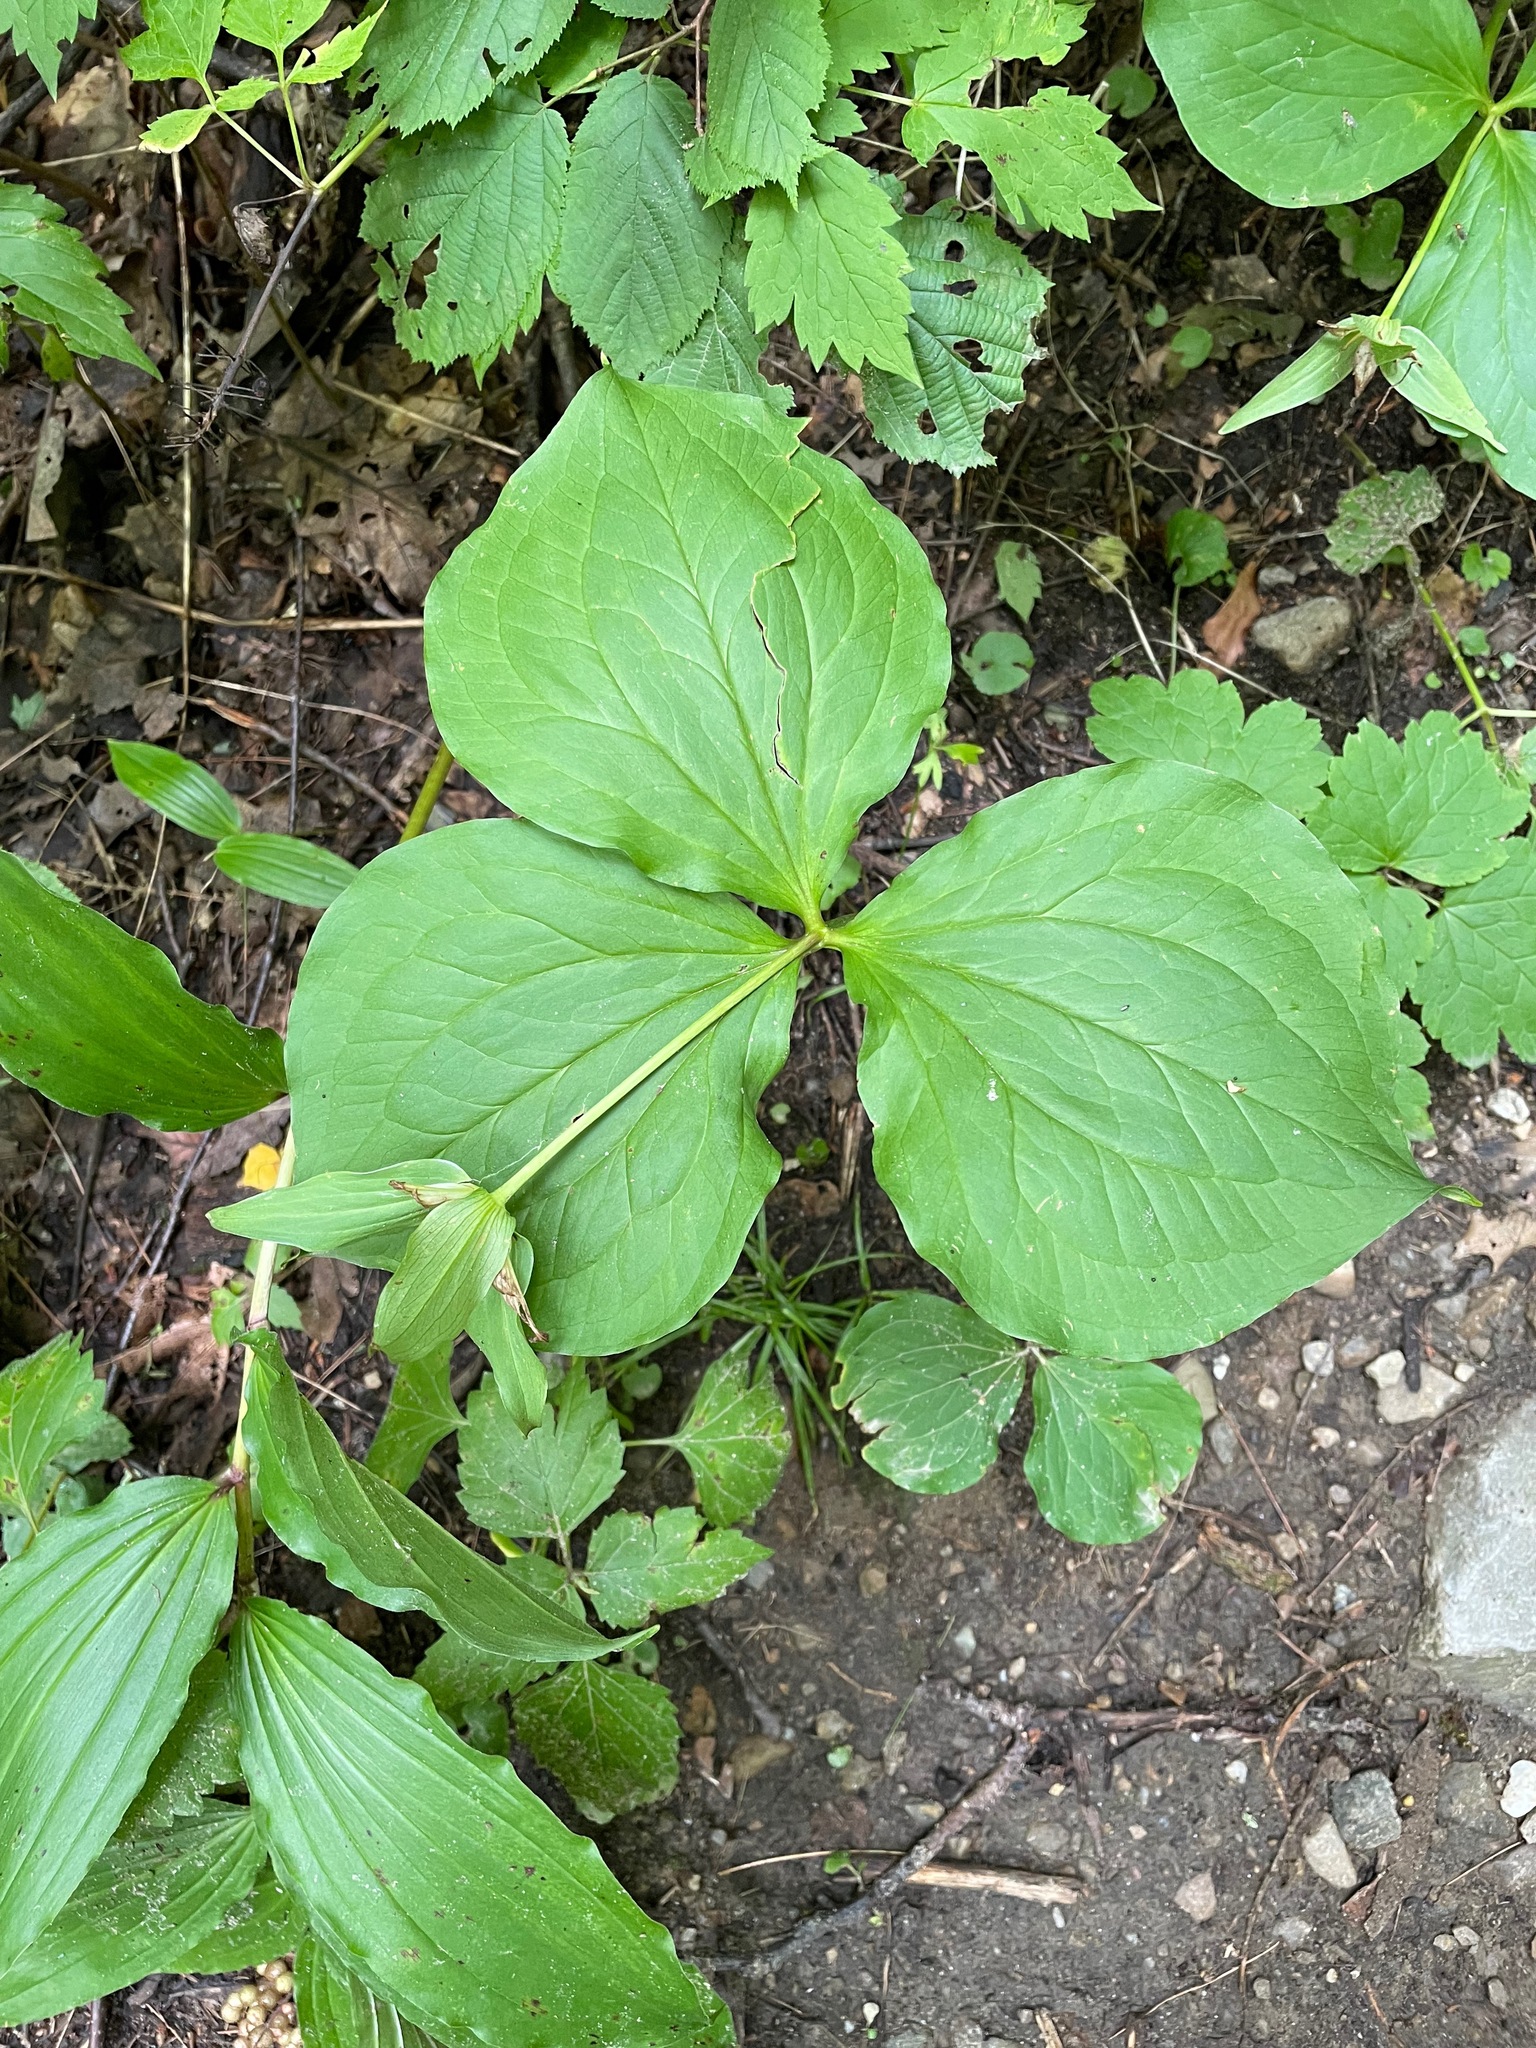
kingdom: Plantae
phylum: Tracheophyta
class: Liliopsida
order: Liliales
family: Melanthiaceae
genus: Trillium
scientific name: Trillium grandiflorum
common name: Great white trillium
